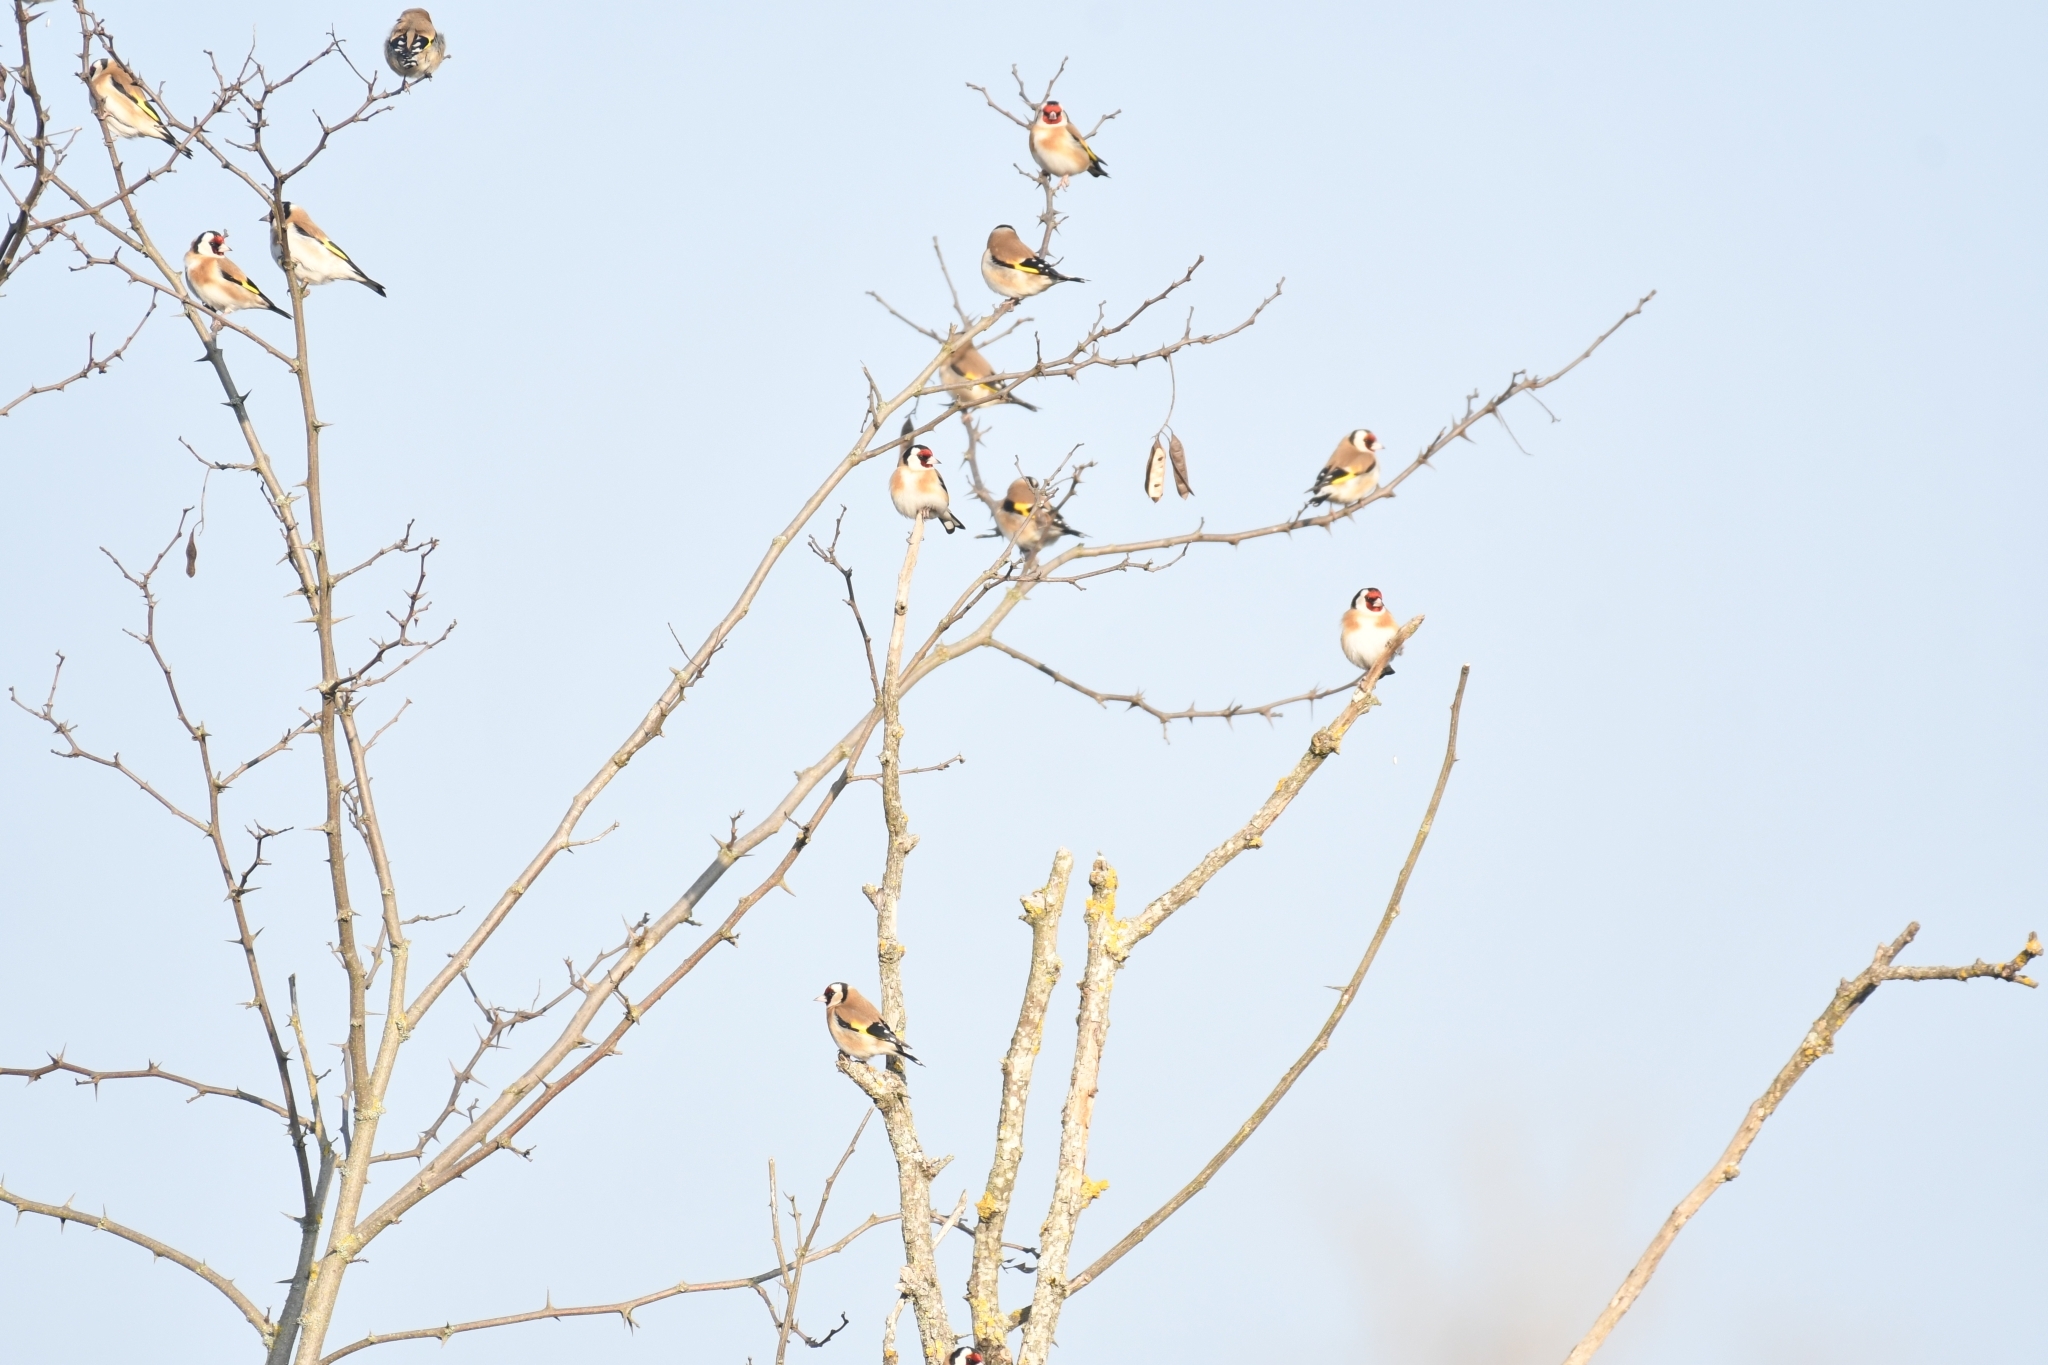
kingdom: Animalia
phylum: Chordata
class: Aves
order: Passeriformes
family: Fringillidae
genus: Carduelis
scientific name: Carduelis carduelis
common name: European goldfinch
